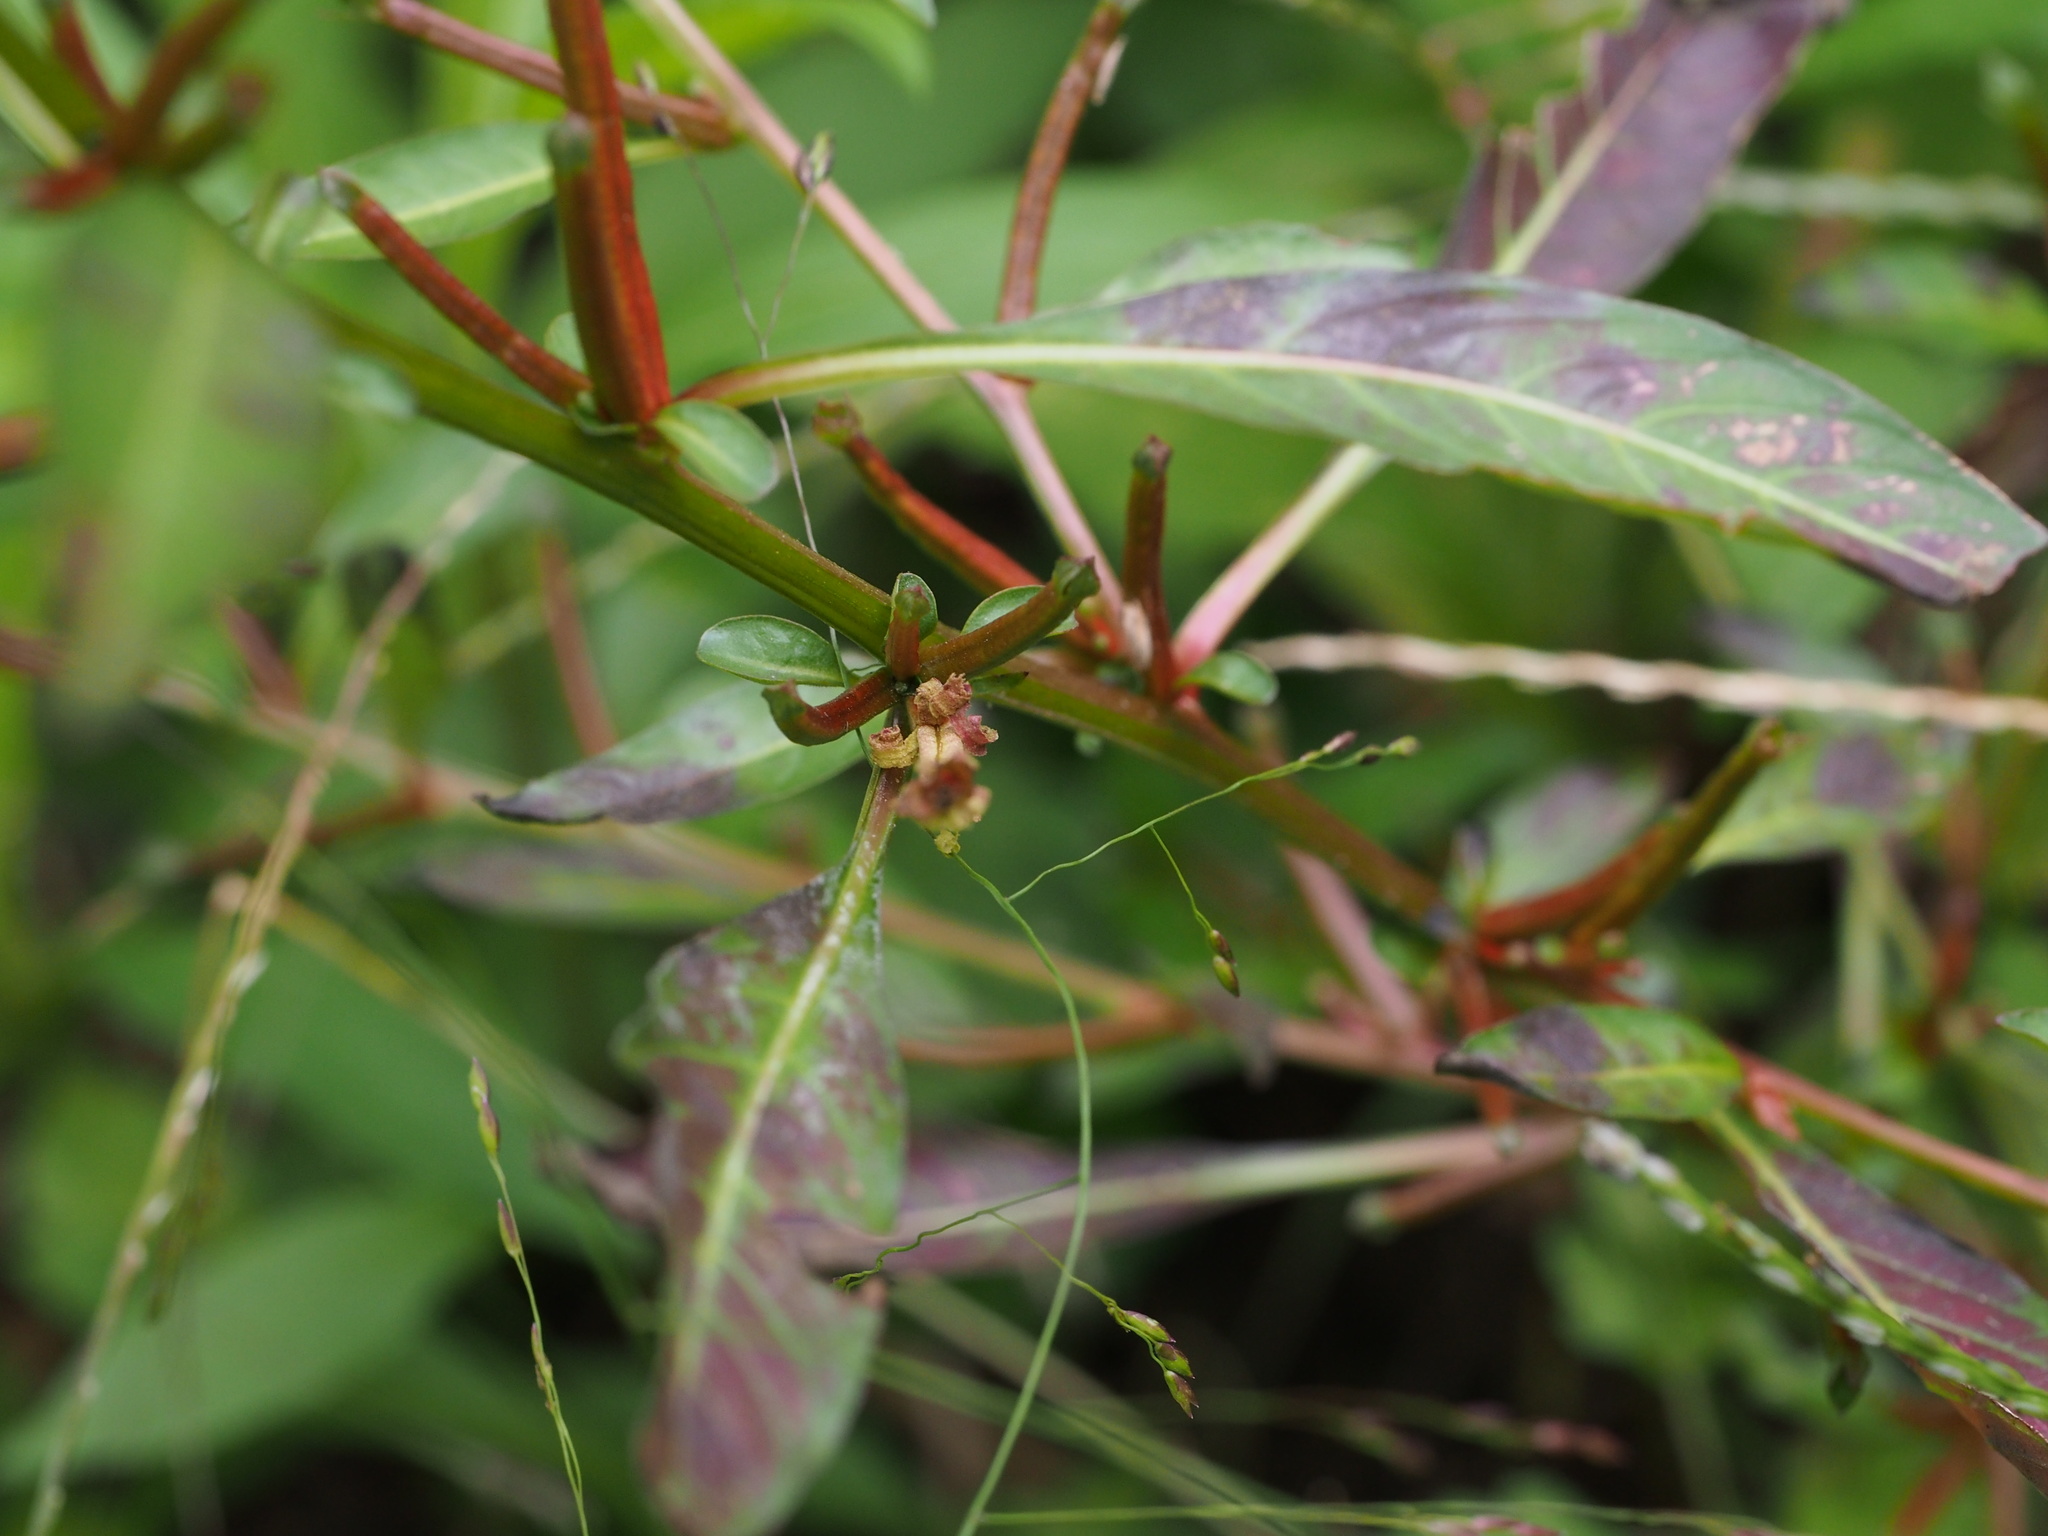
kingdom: Plantae
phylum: Tracheophyta
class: Magnoliopsida
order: Myrtales
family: Onagraceae
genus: Ludwigia
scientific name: Ludwigia epilobioides
